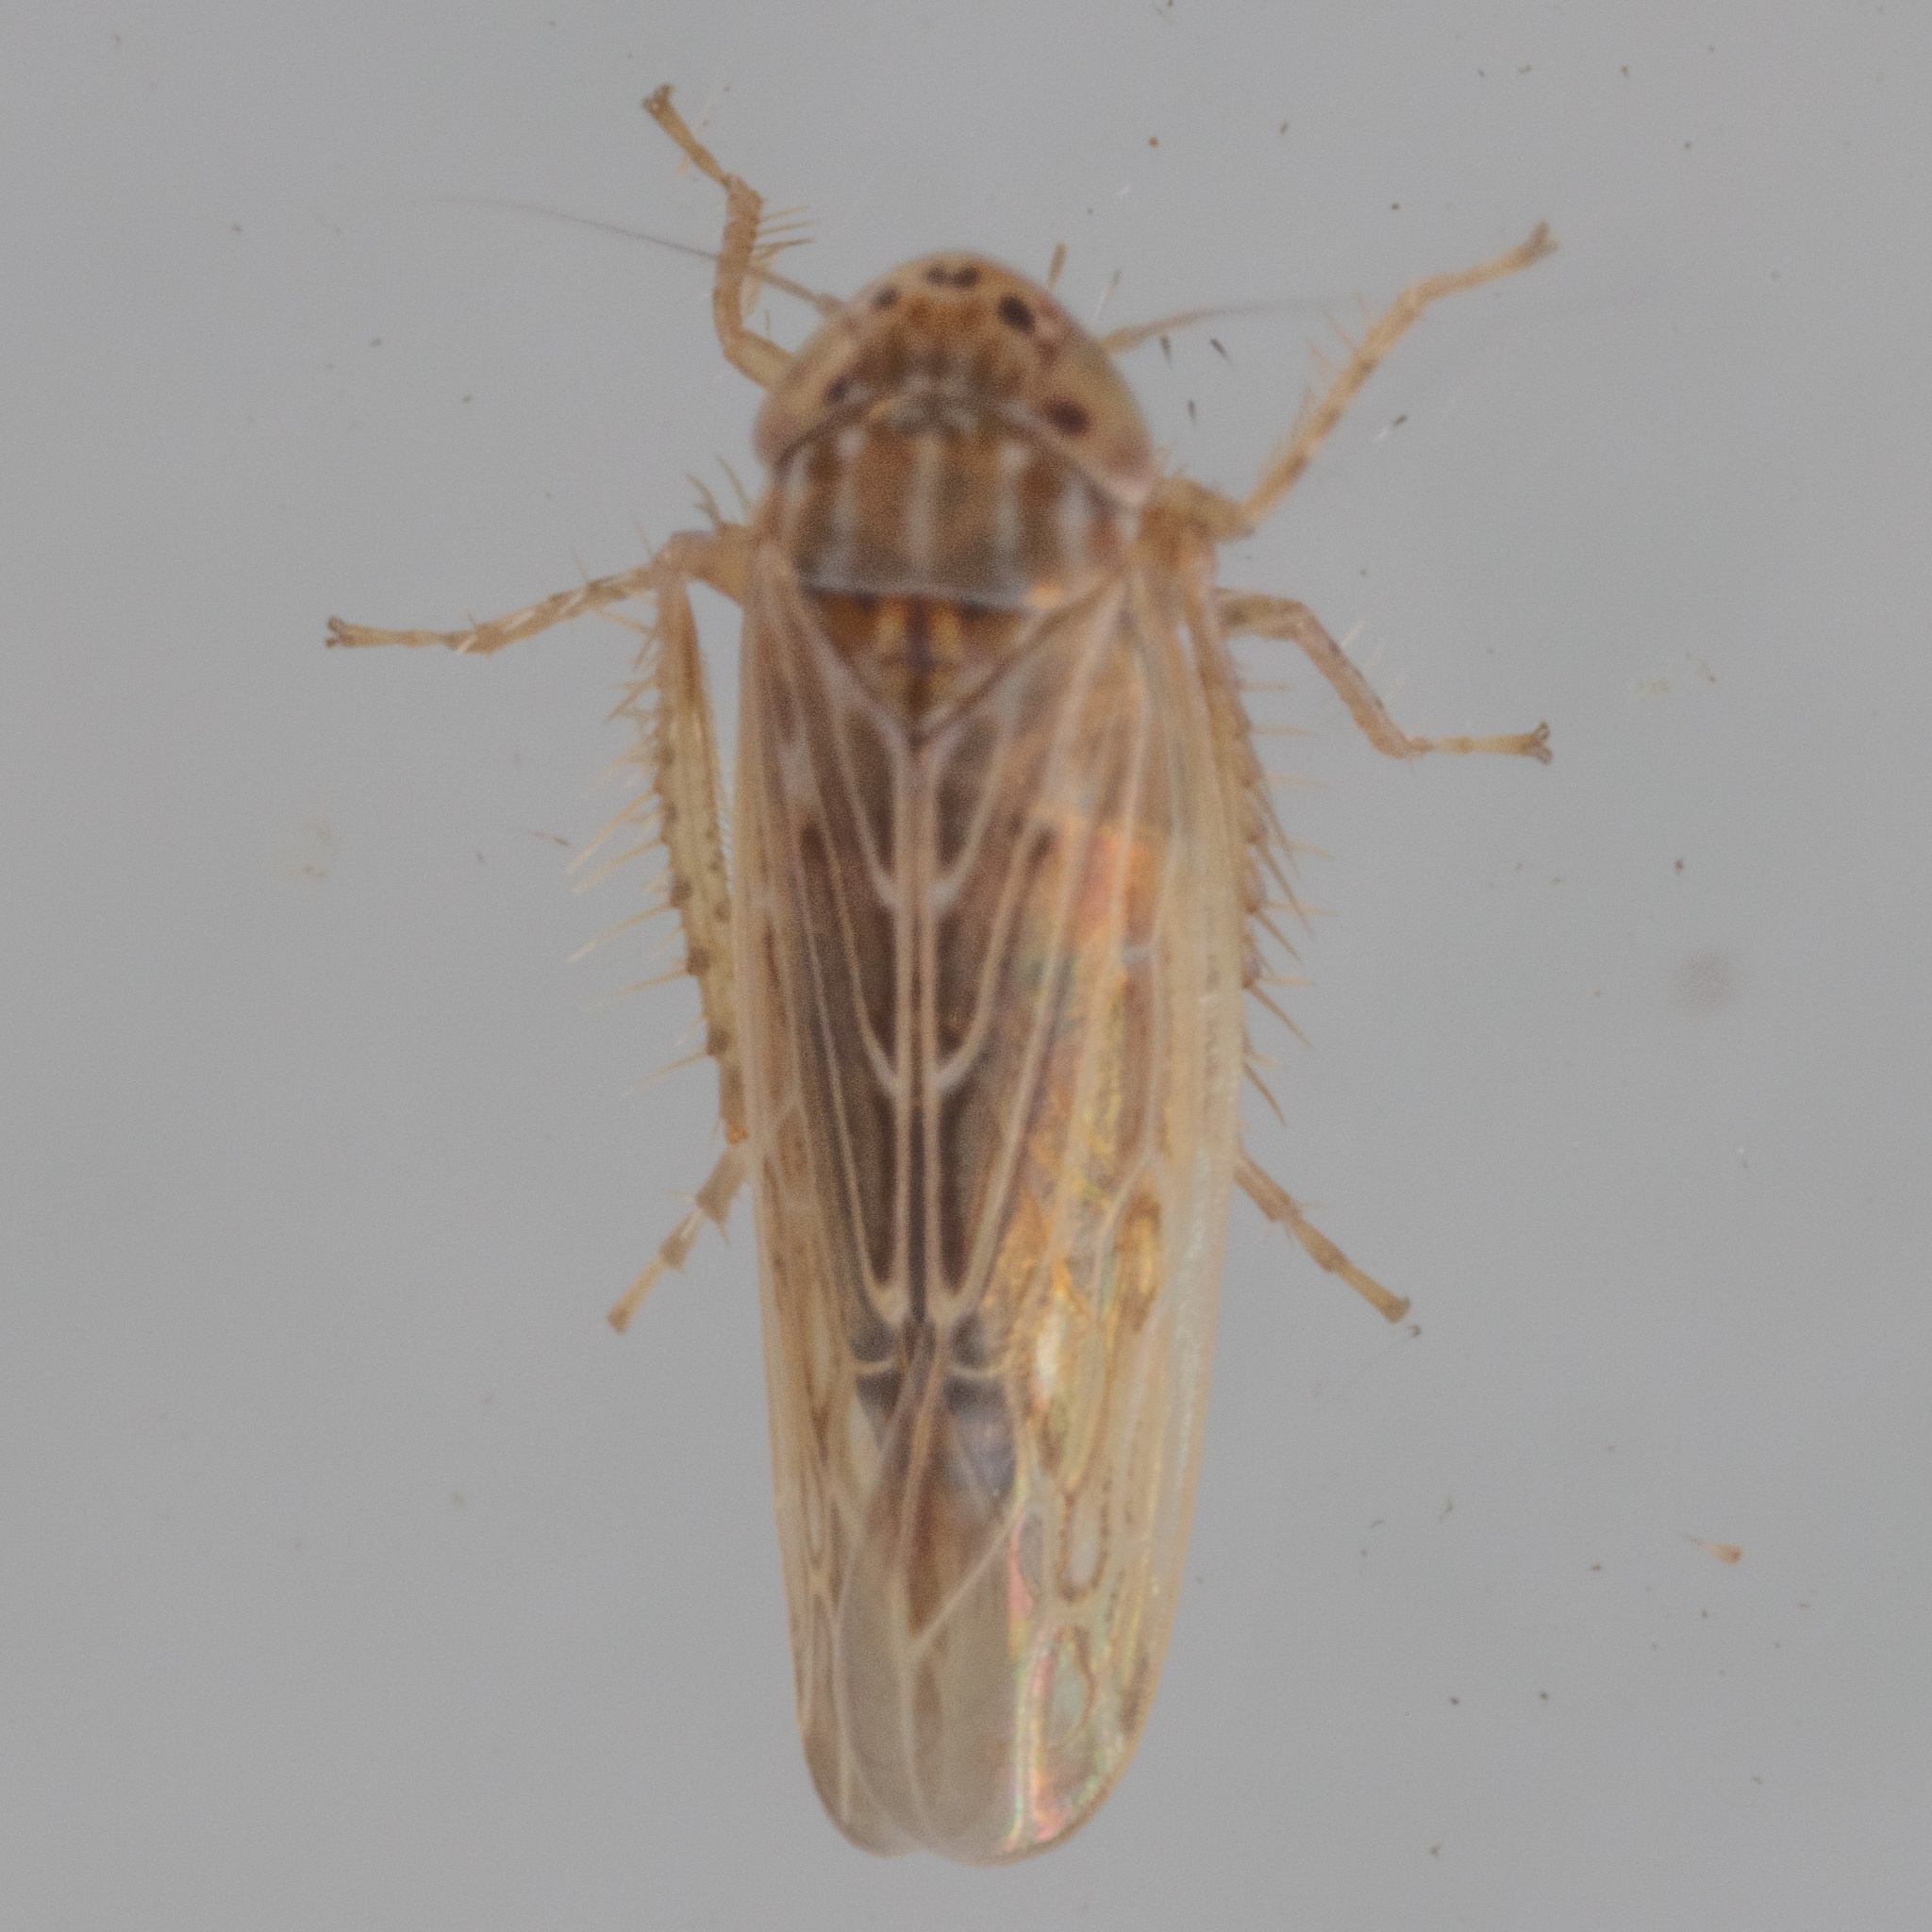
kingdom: Animalia
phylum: Arthropoda
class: Insecta
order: Hemiptera
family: Cicadellidae
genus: Graminella
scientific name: Graminella sonora
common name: Lesser lawn leafhopper
